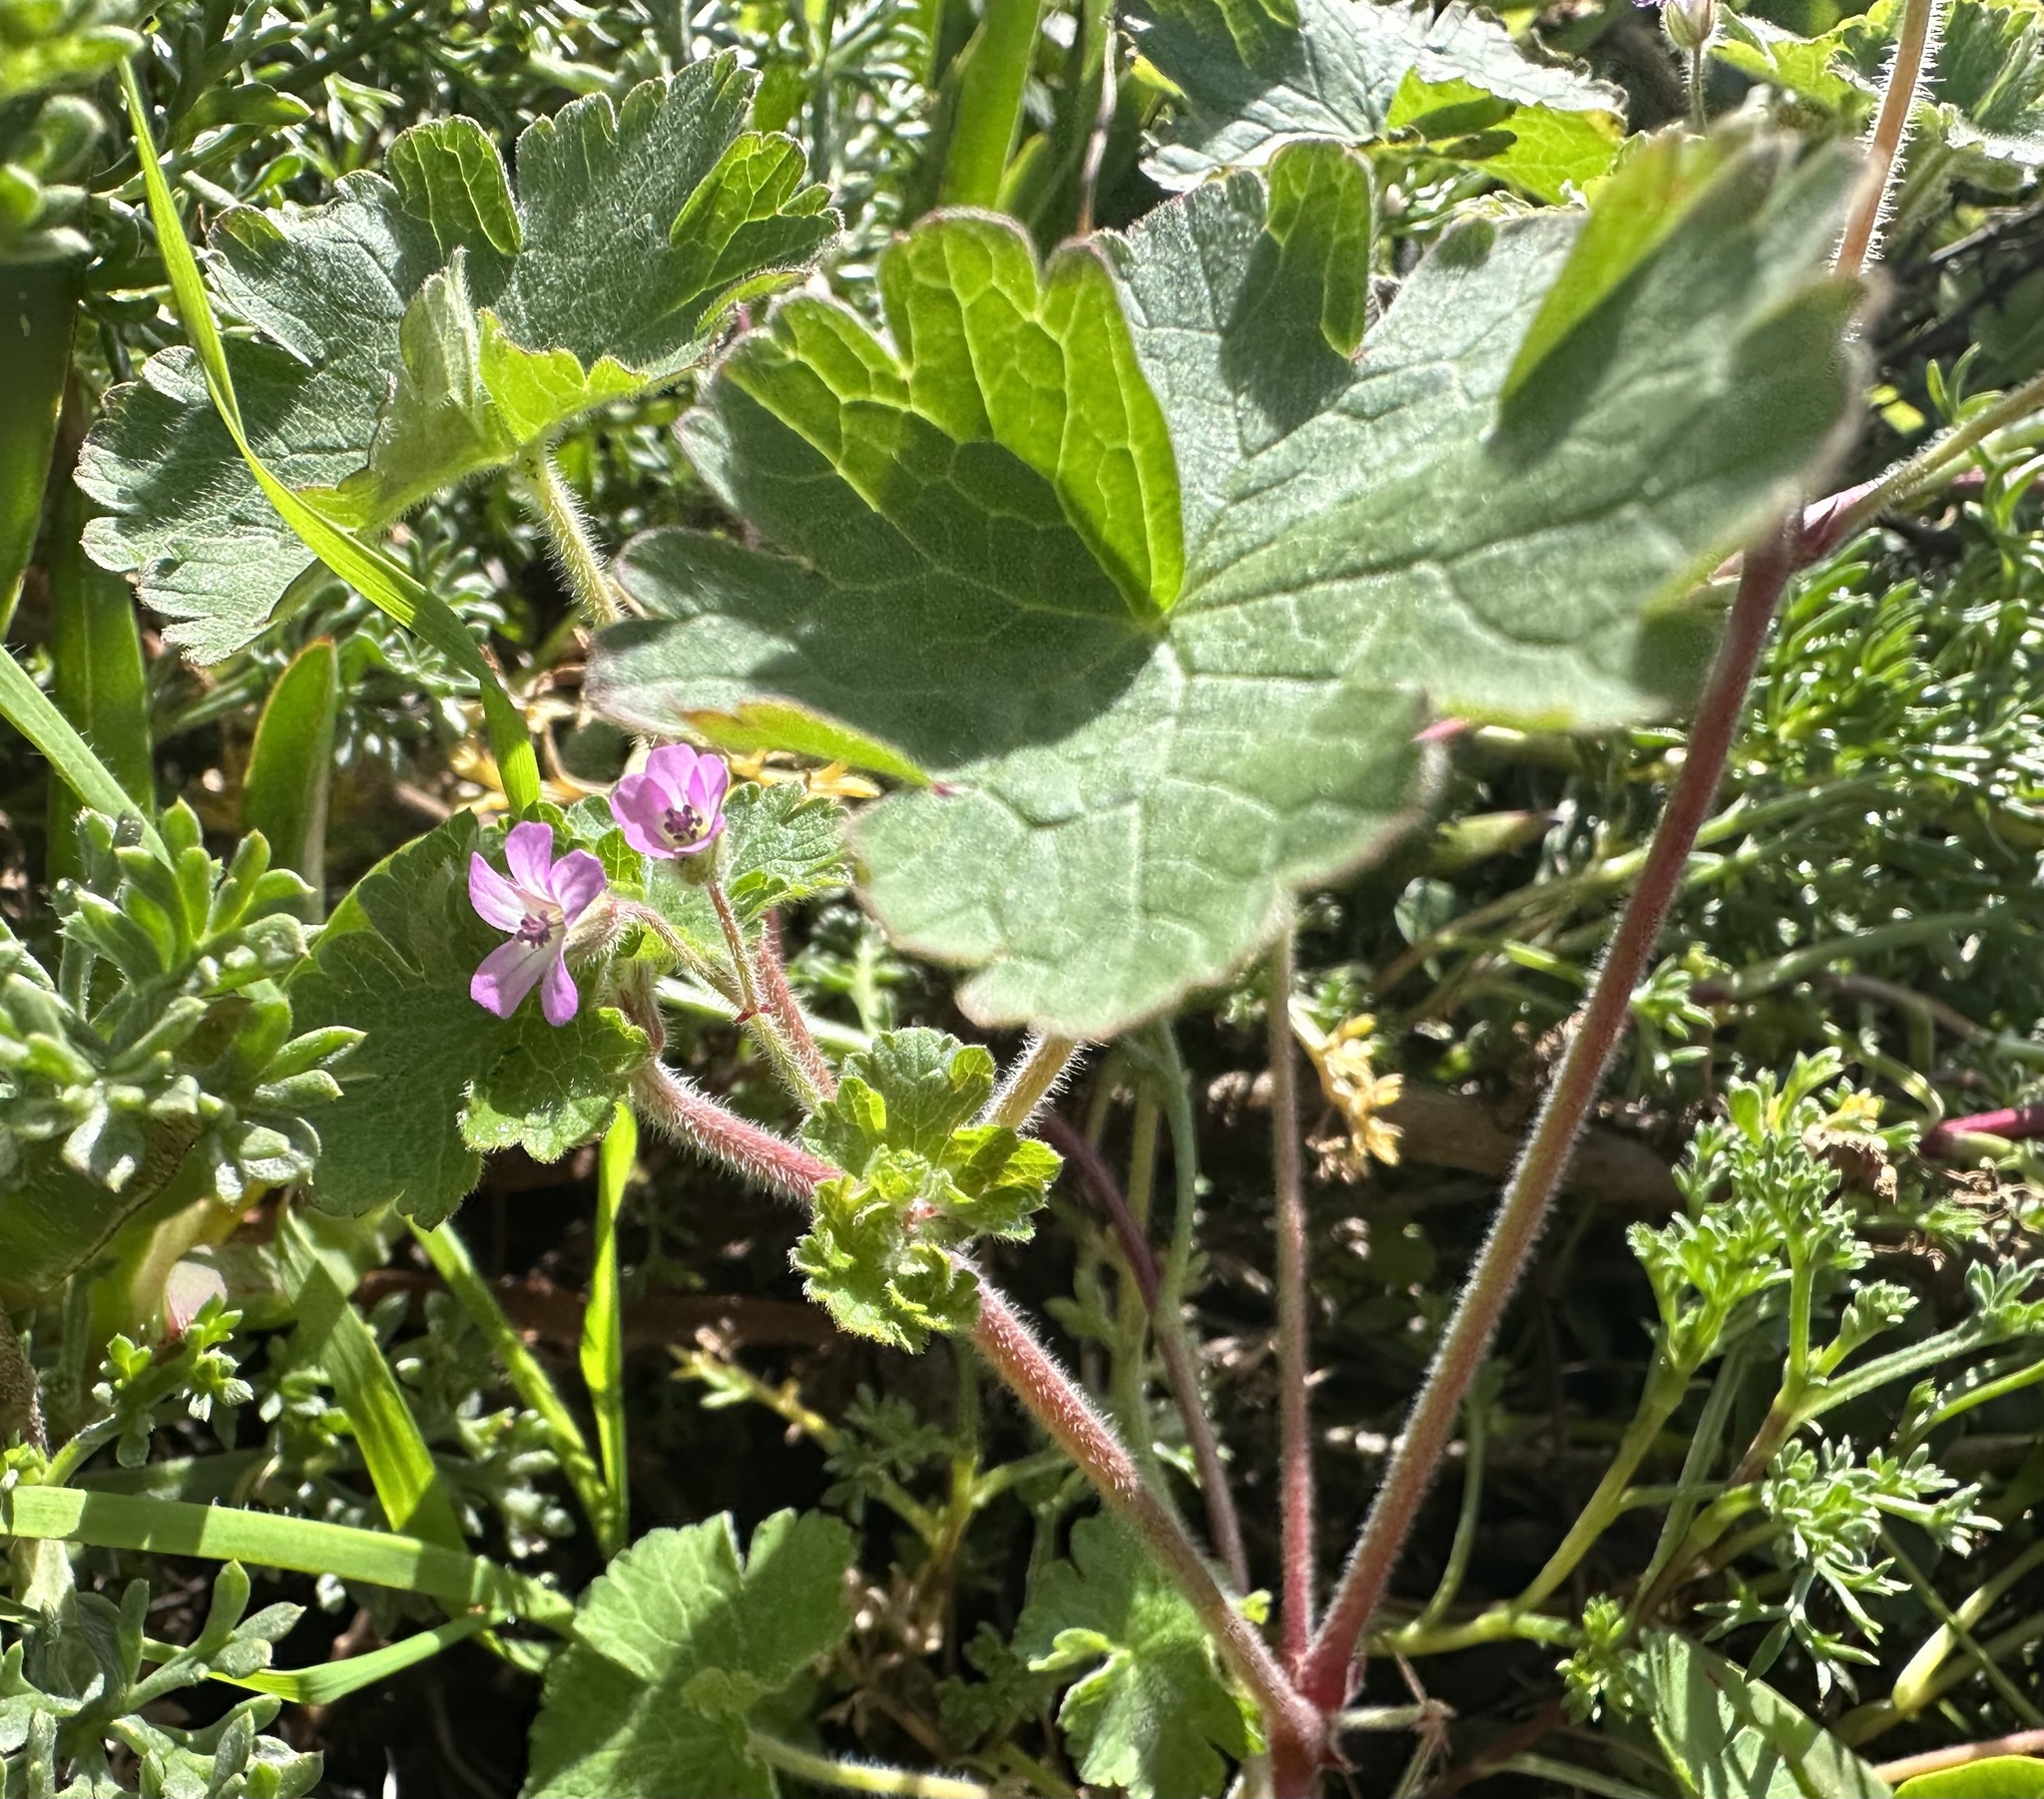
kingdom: Plantae
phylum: Tracheophyta
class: Magnoliopsida
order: Geraniales
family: Geraniaceae
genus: Geranium
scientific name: Geranium rotundifolium
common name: Round-leaved crane's-bill
